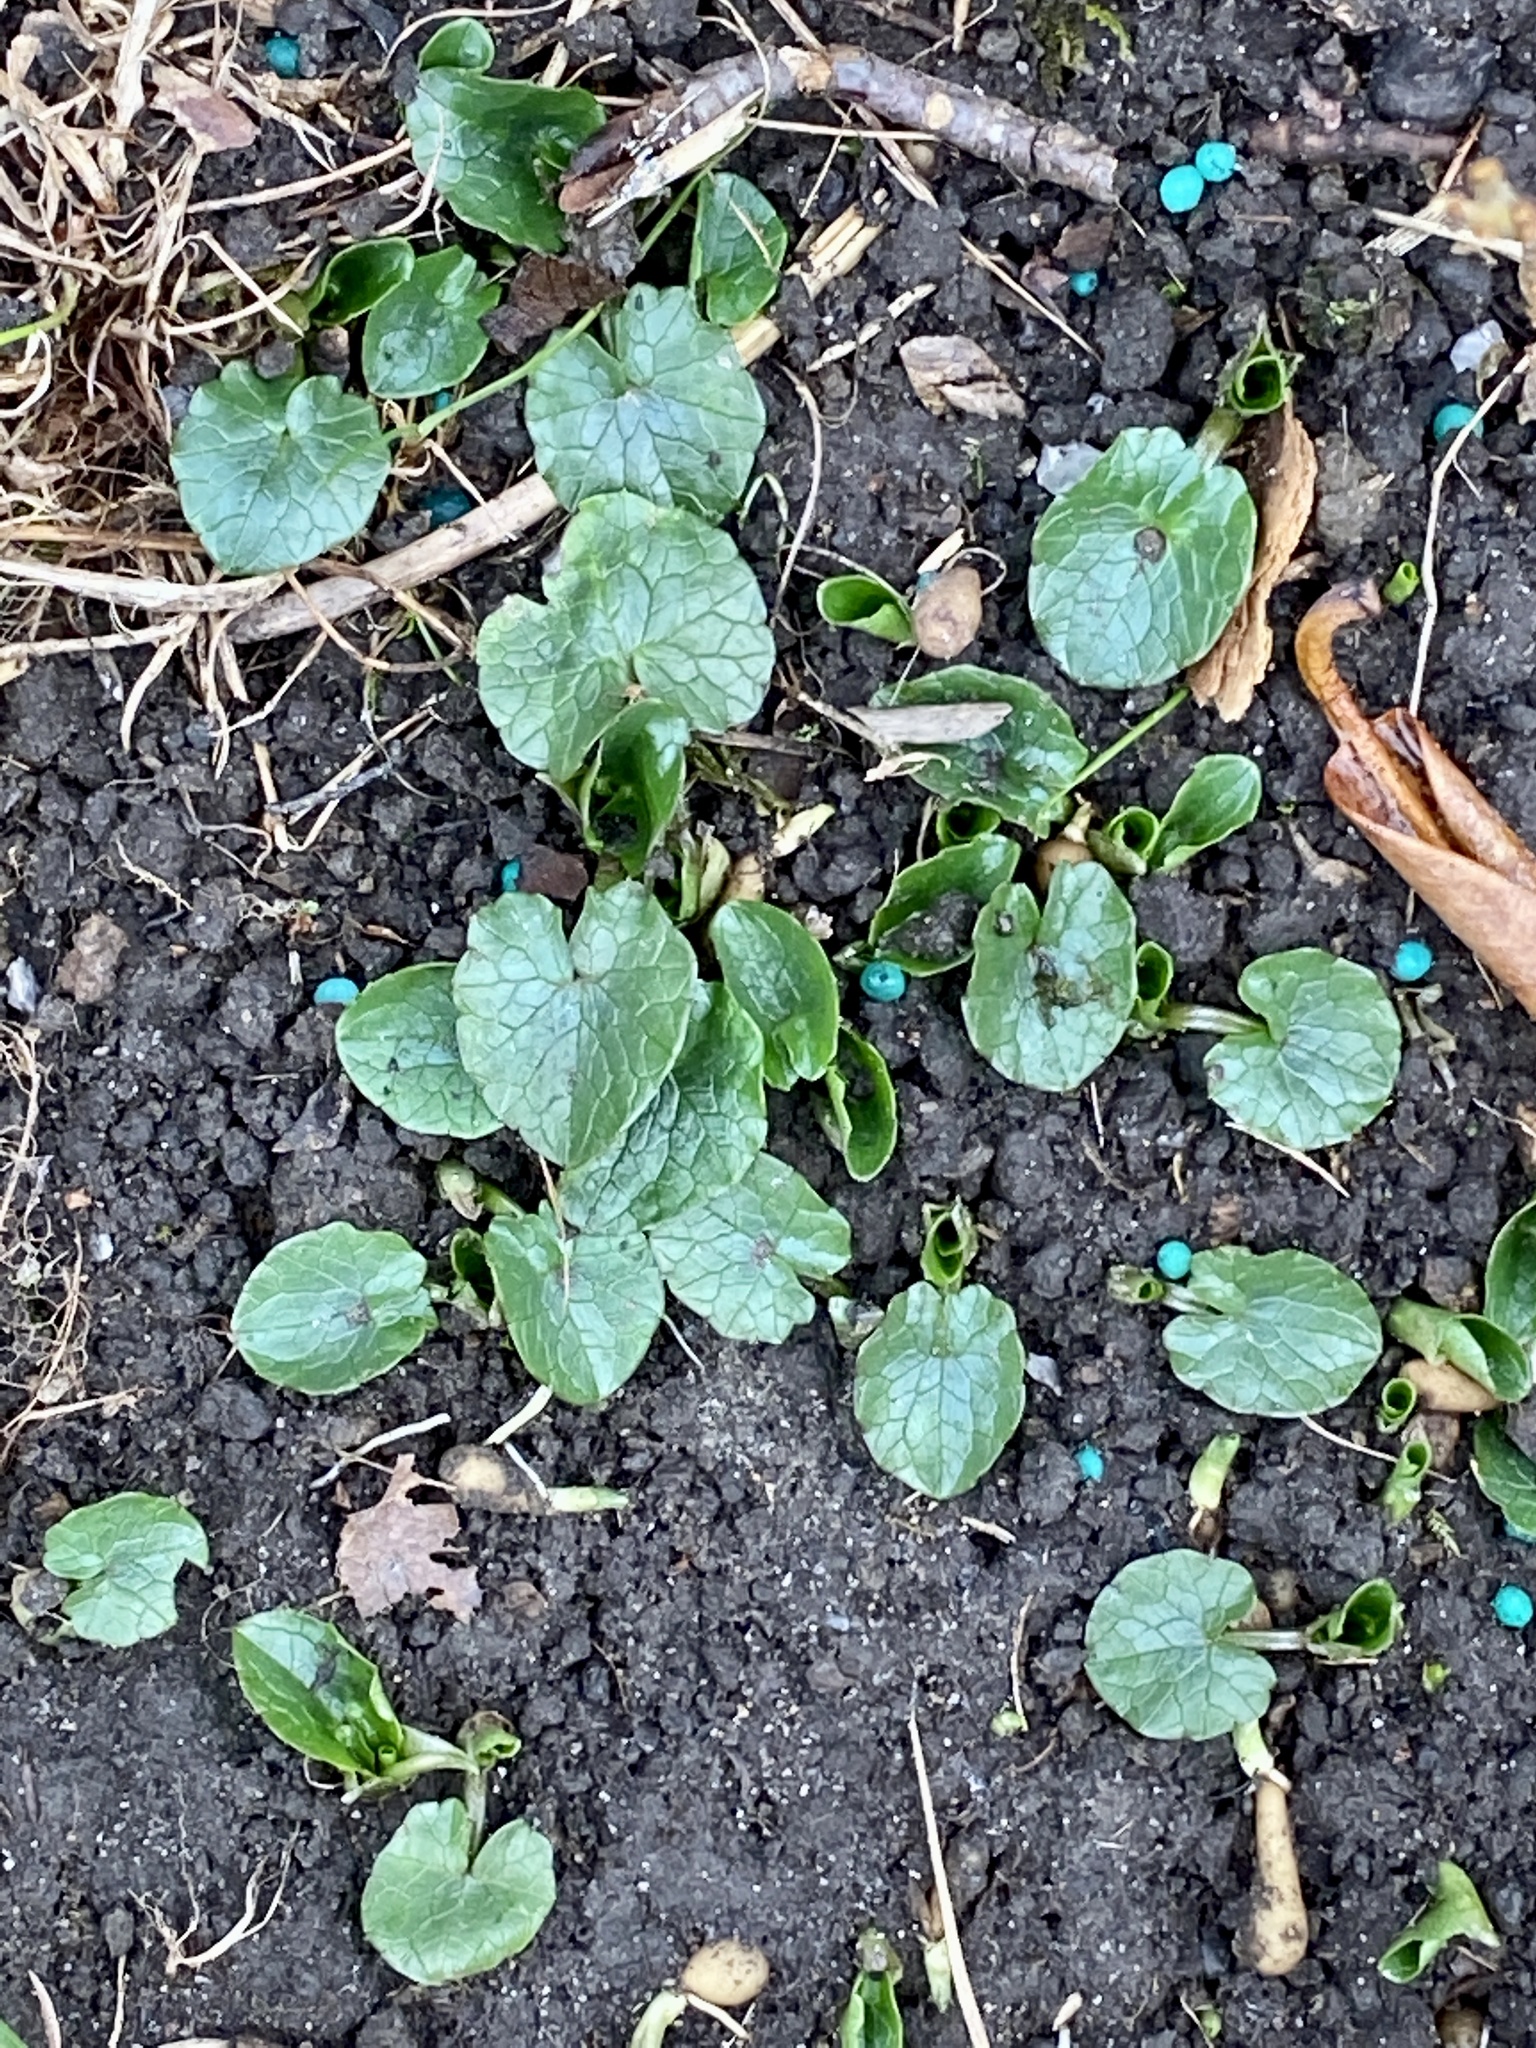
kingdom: Plantae
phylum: Tracheophyta
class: Magnoliopsida
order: Ranunculales
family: Ranunculaceae
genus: Ficaria
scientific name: Ficaria verna
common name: Lesser celandine
